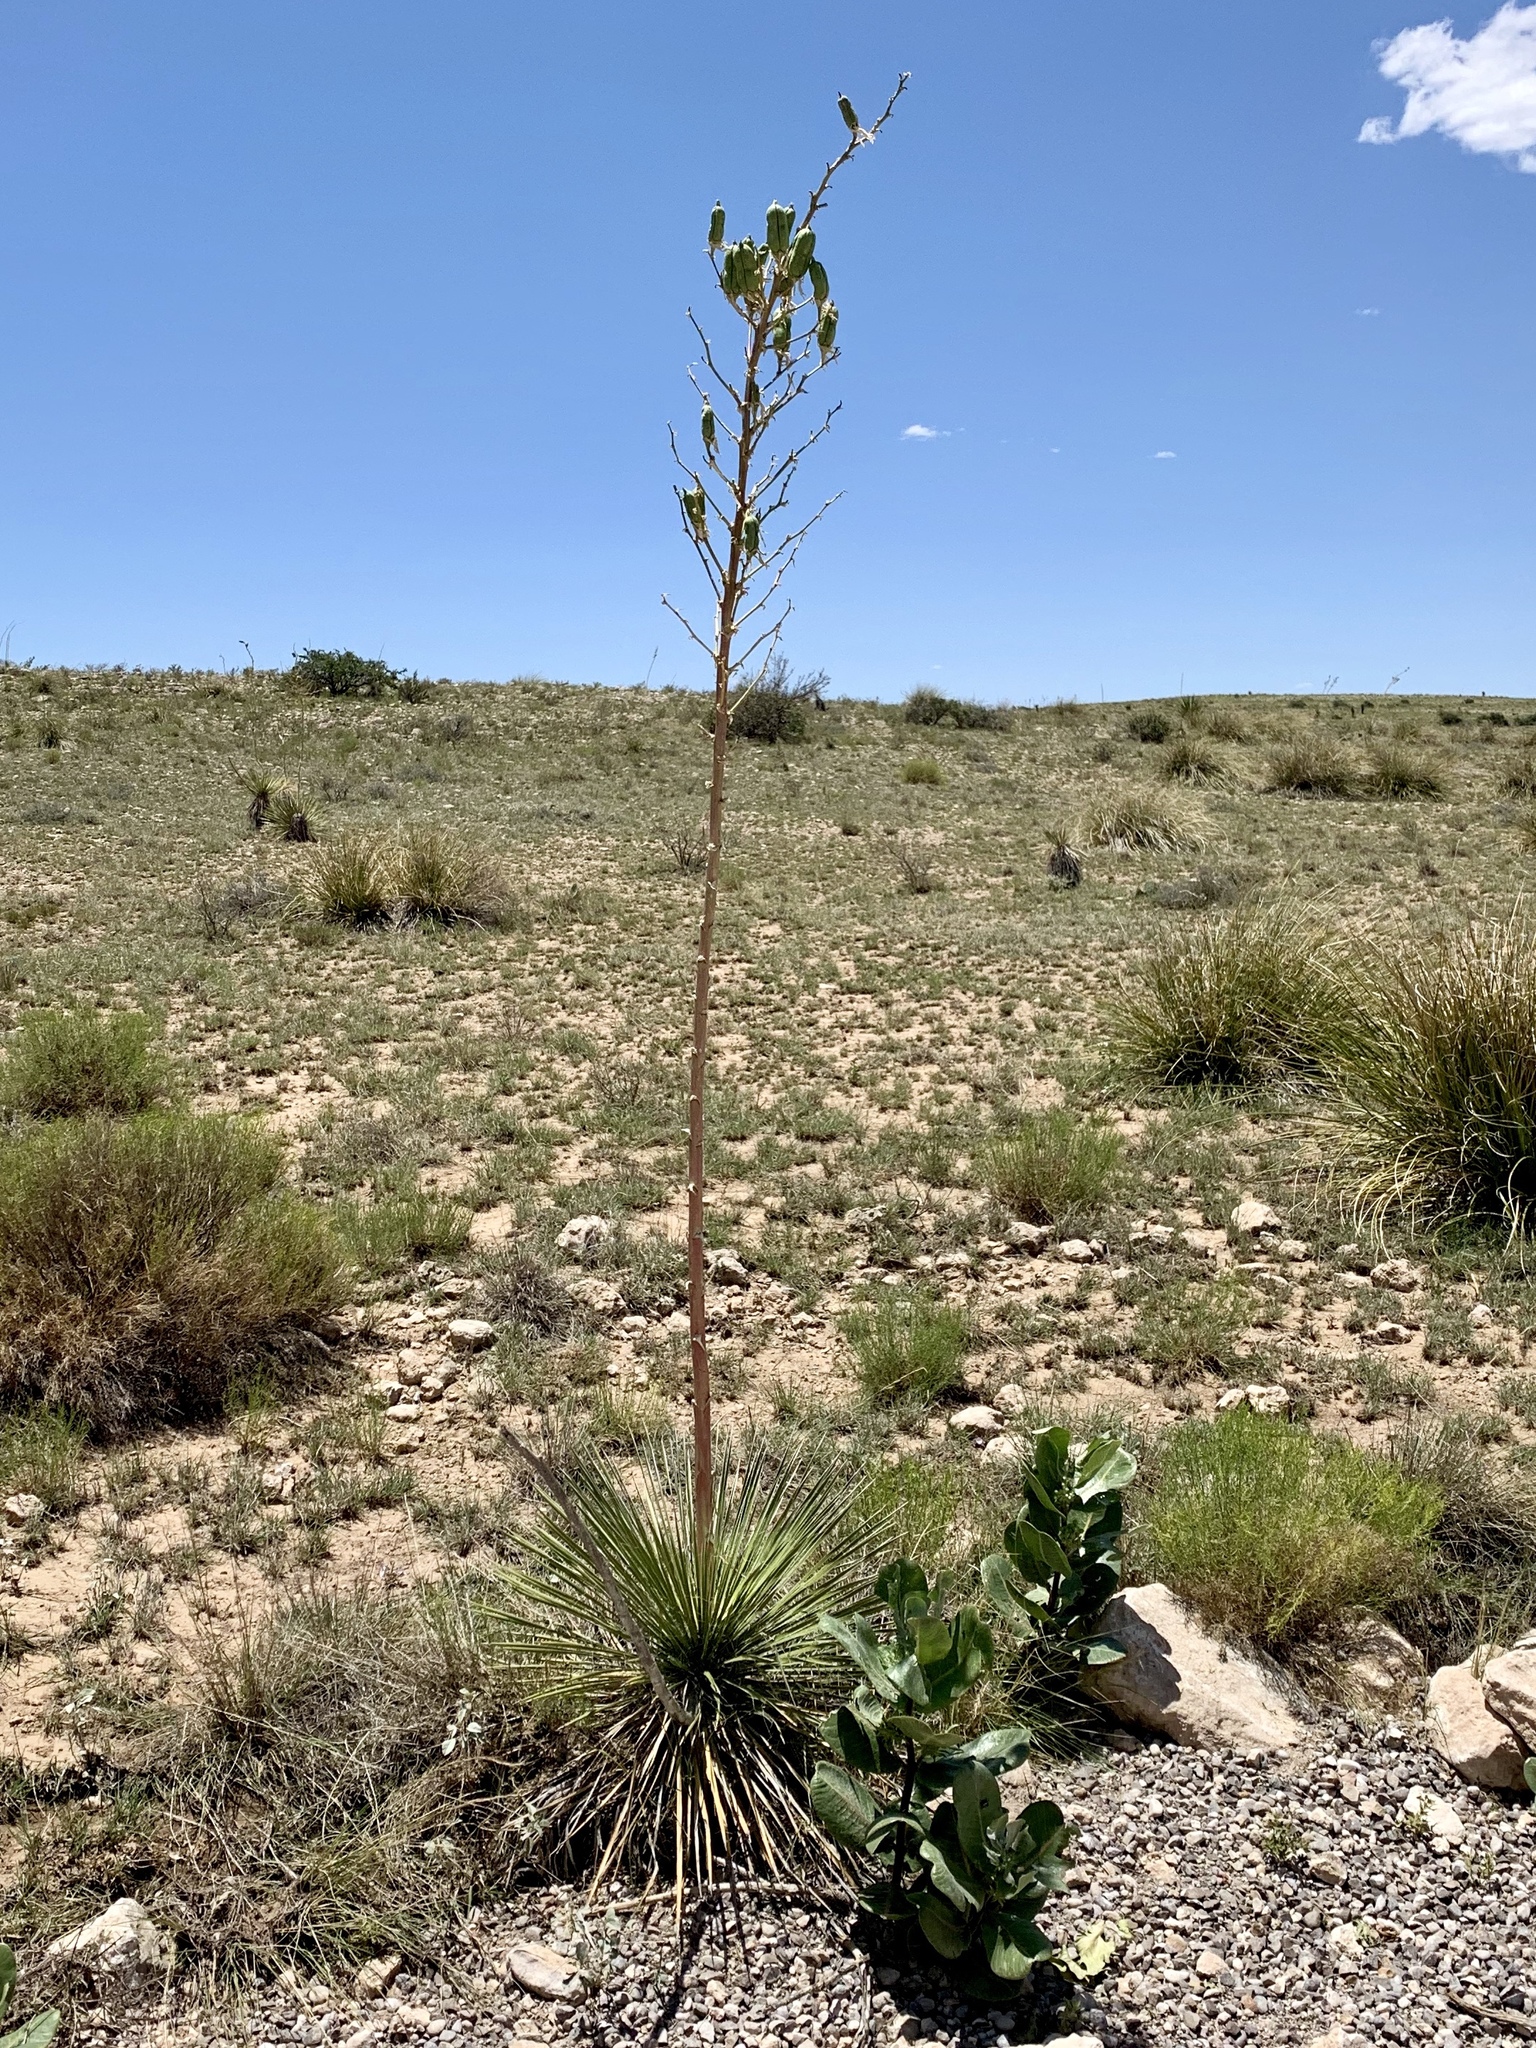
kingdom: Plantae
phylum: Tracheophyta
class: Liliopsida
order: Asparagales
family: Asparagaceae
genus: Yucca
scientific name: Yucca elata
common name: Palmella
